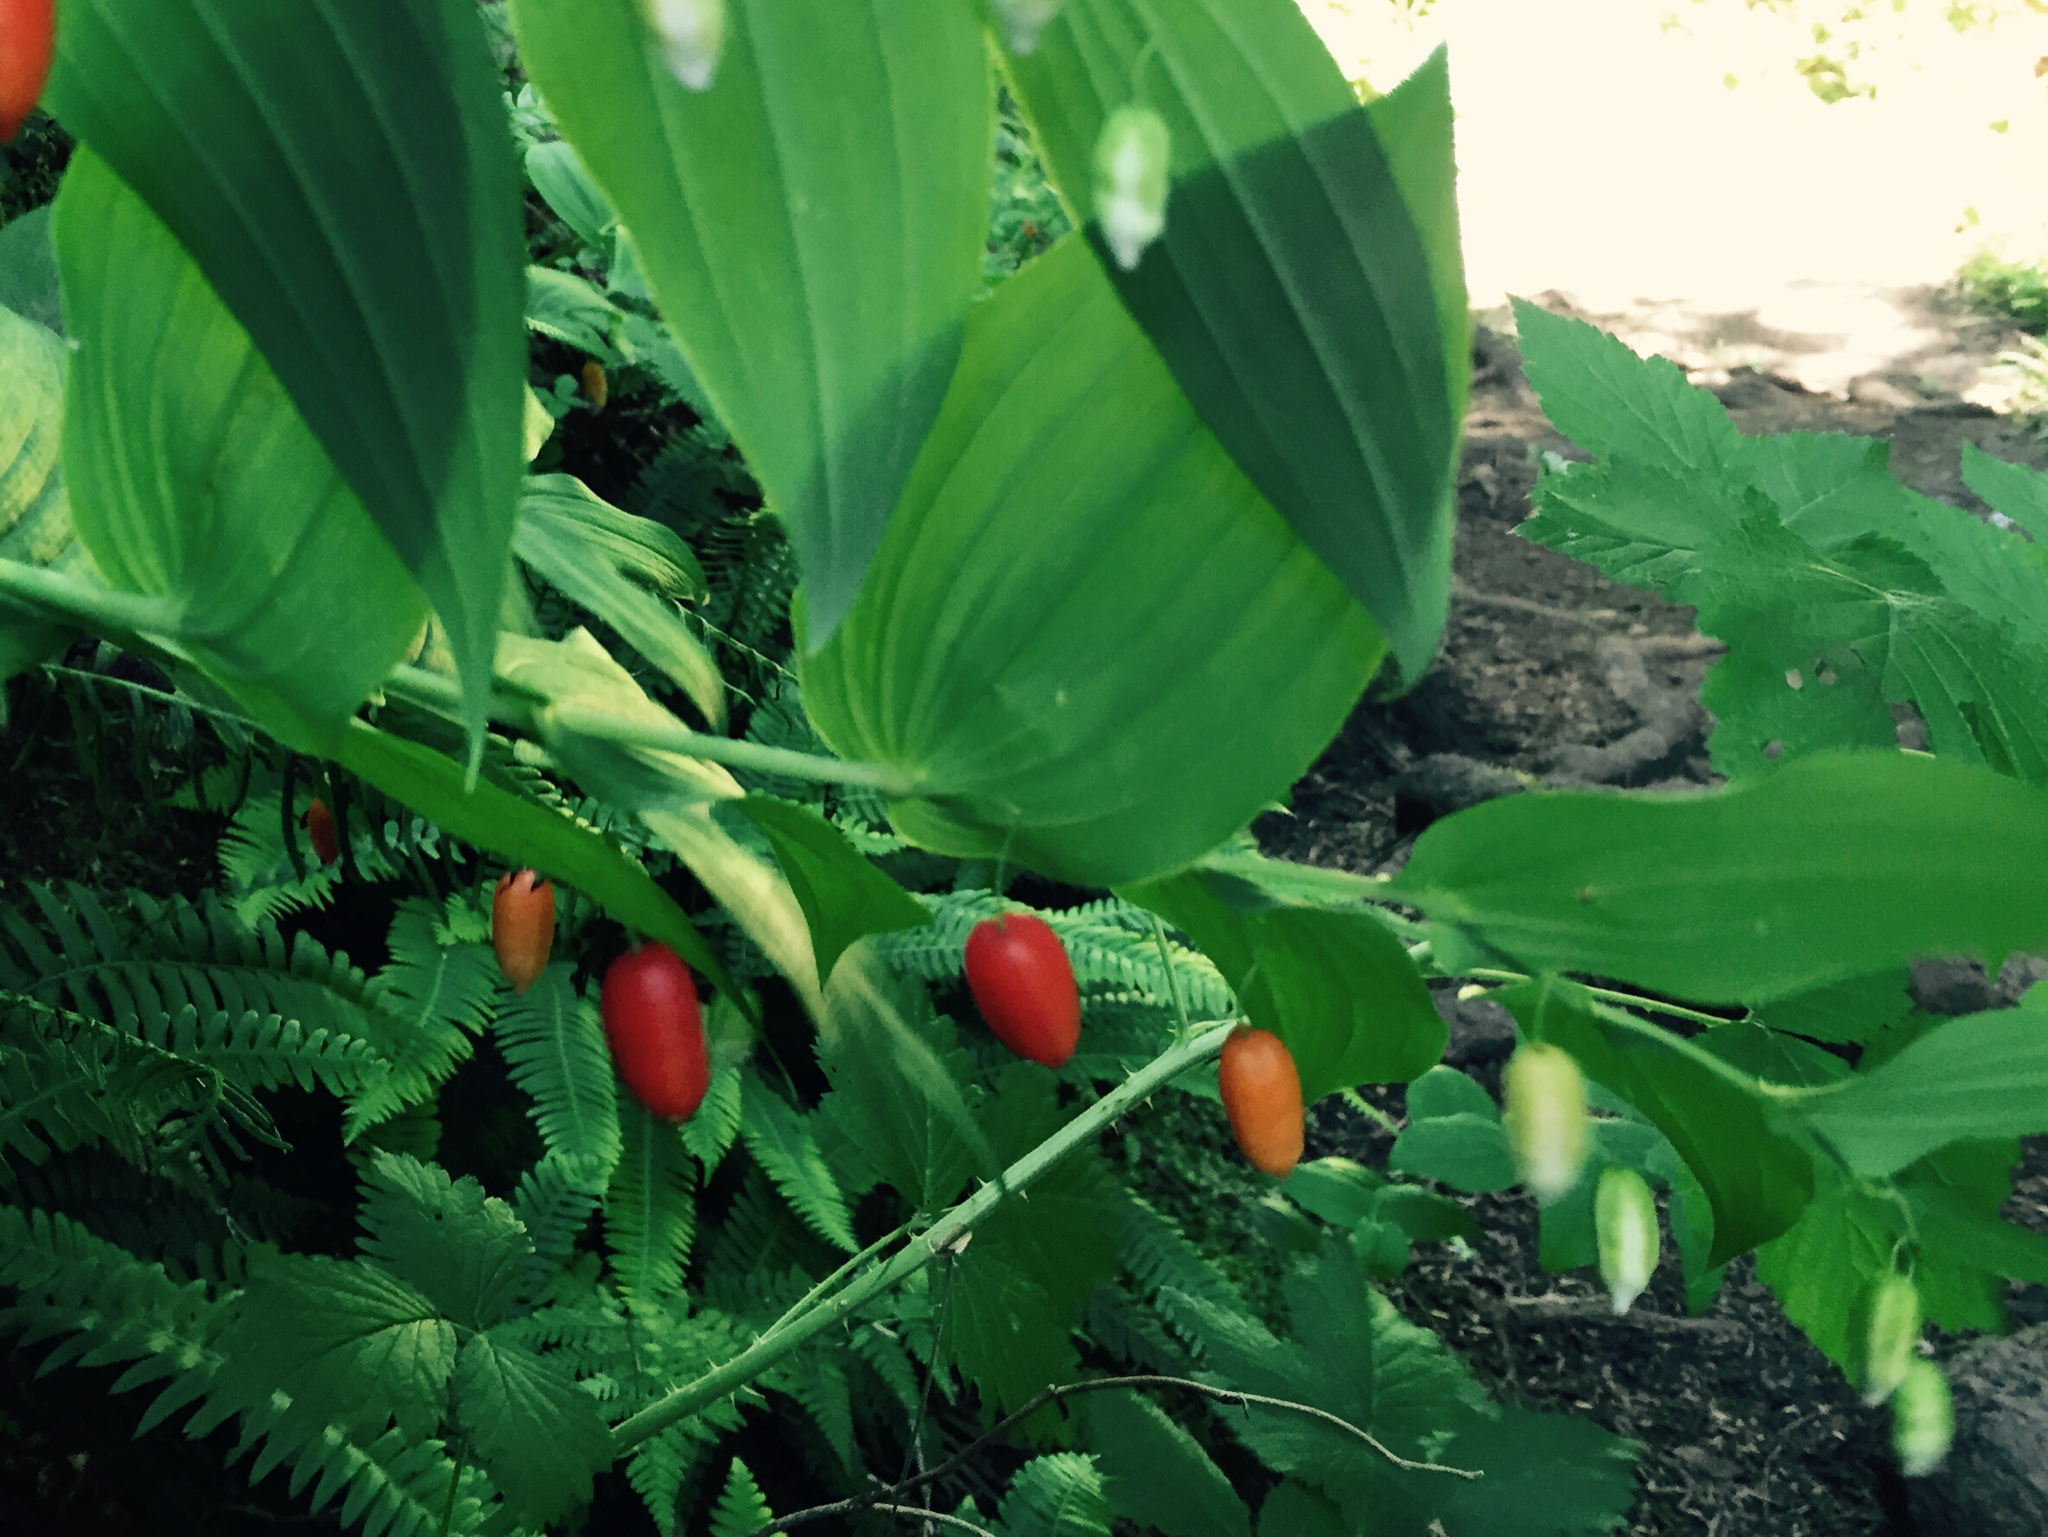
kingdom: Plantae
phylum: Tracheophyta
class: Liliopsida
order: Liliales
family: Liliaceae
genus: Streptopus
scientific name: Streptopus amplexifolius
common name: Clasp twisted stalk
